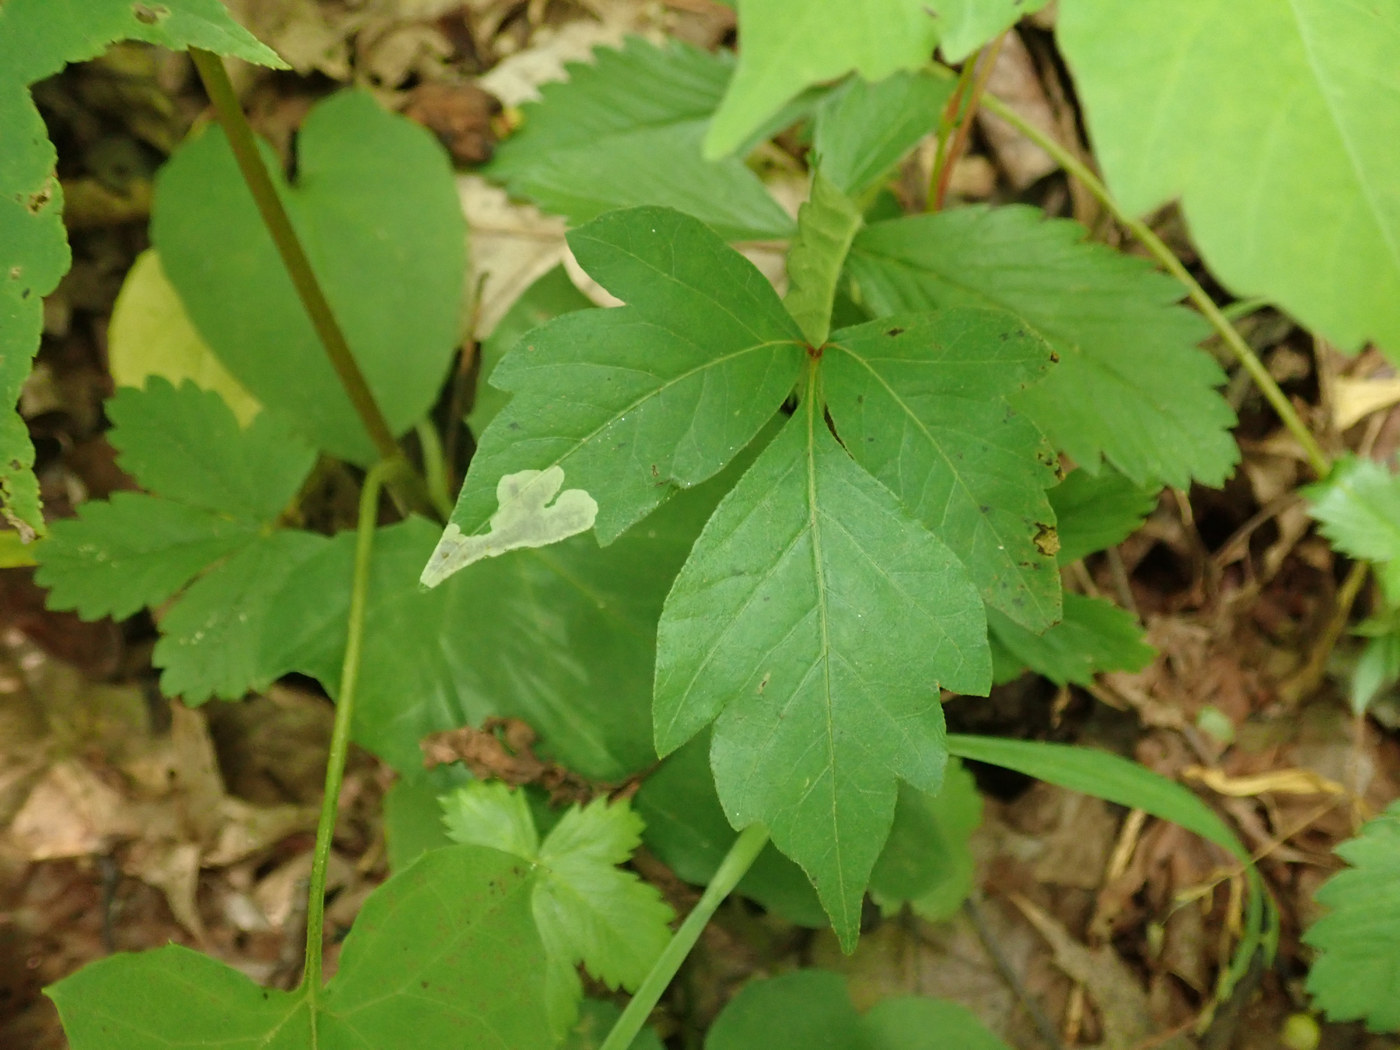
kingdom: Animalia
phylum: Arthropoda
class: Insecta
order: Lepidoptera
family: Gracillariidae
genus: Cameraria
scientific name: Cameraria guttifinitella
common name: Poison ivy leaf-miner moth
